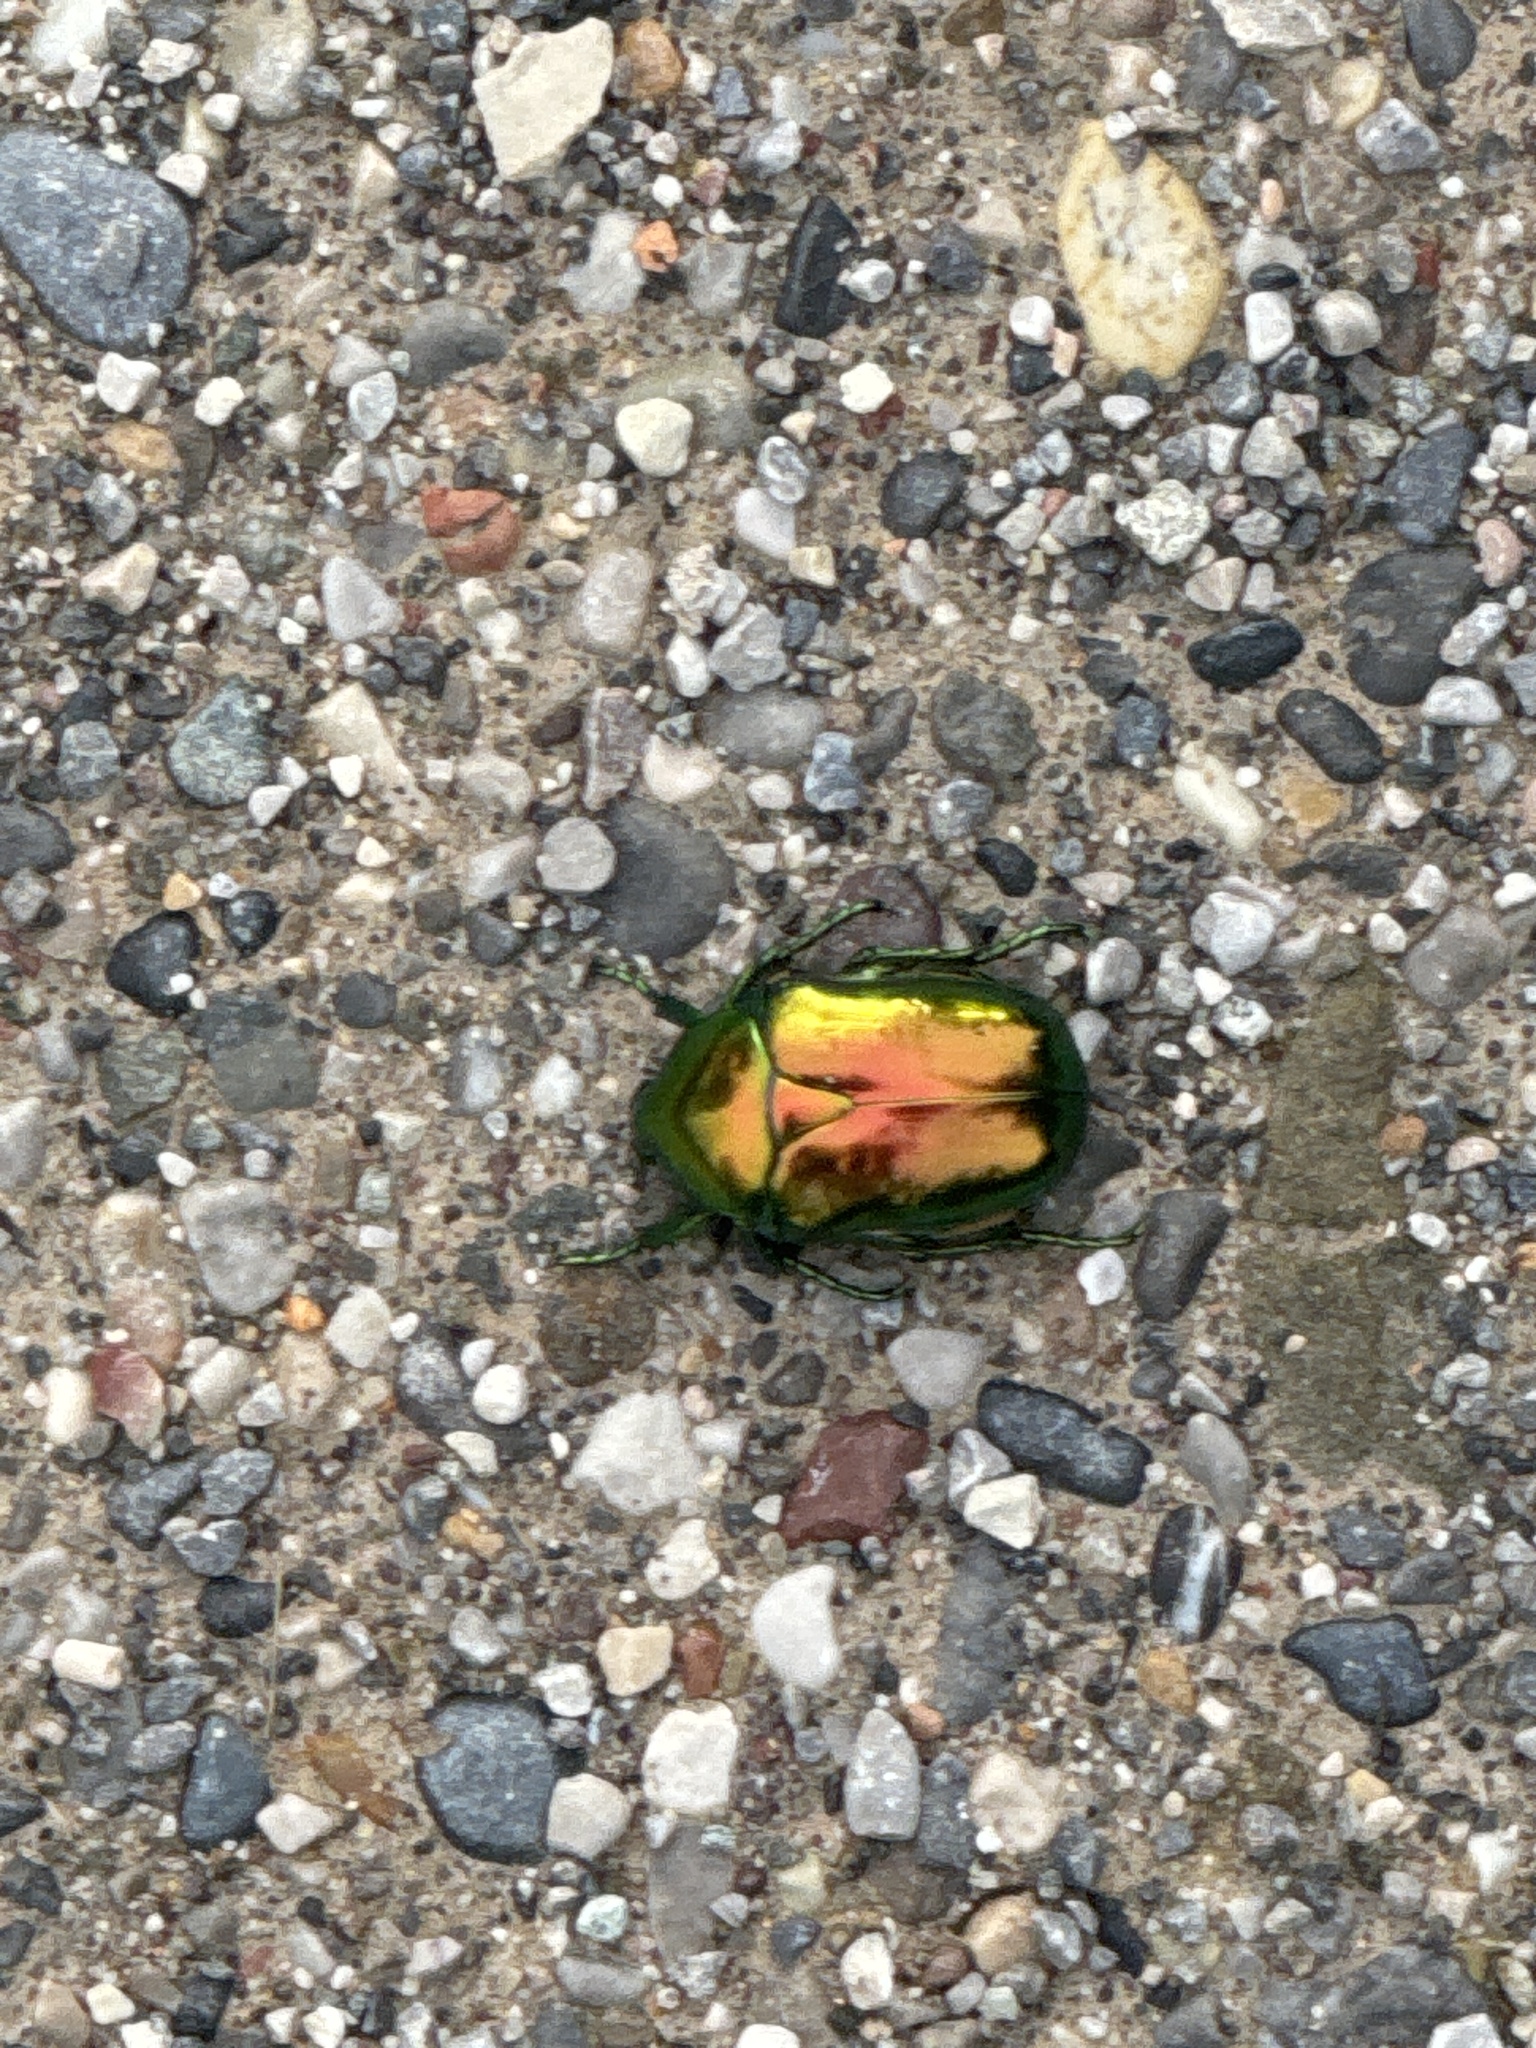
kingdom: Animalia
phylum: Arthropoda
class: Insecta
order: Coleoptera
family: Scarabaeidae
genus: Protaetia
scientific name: Protaetia speciosissima
